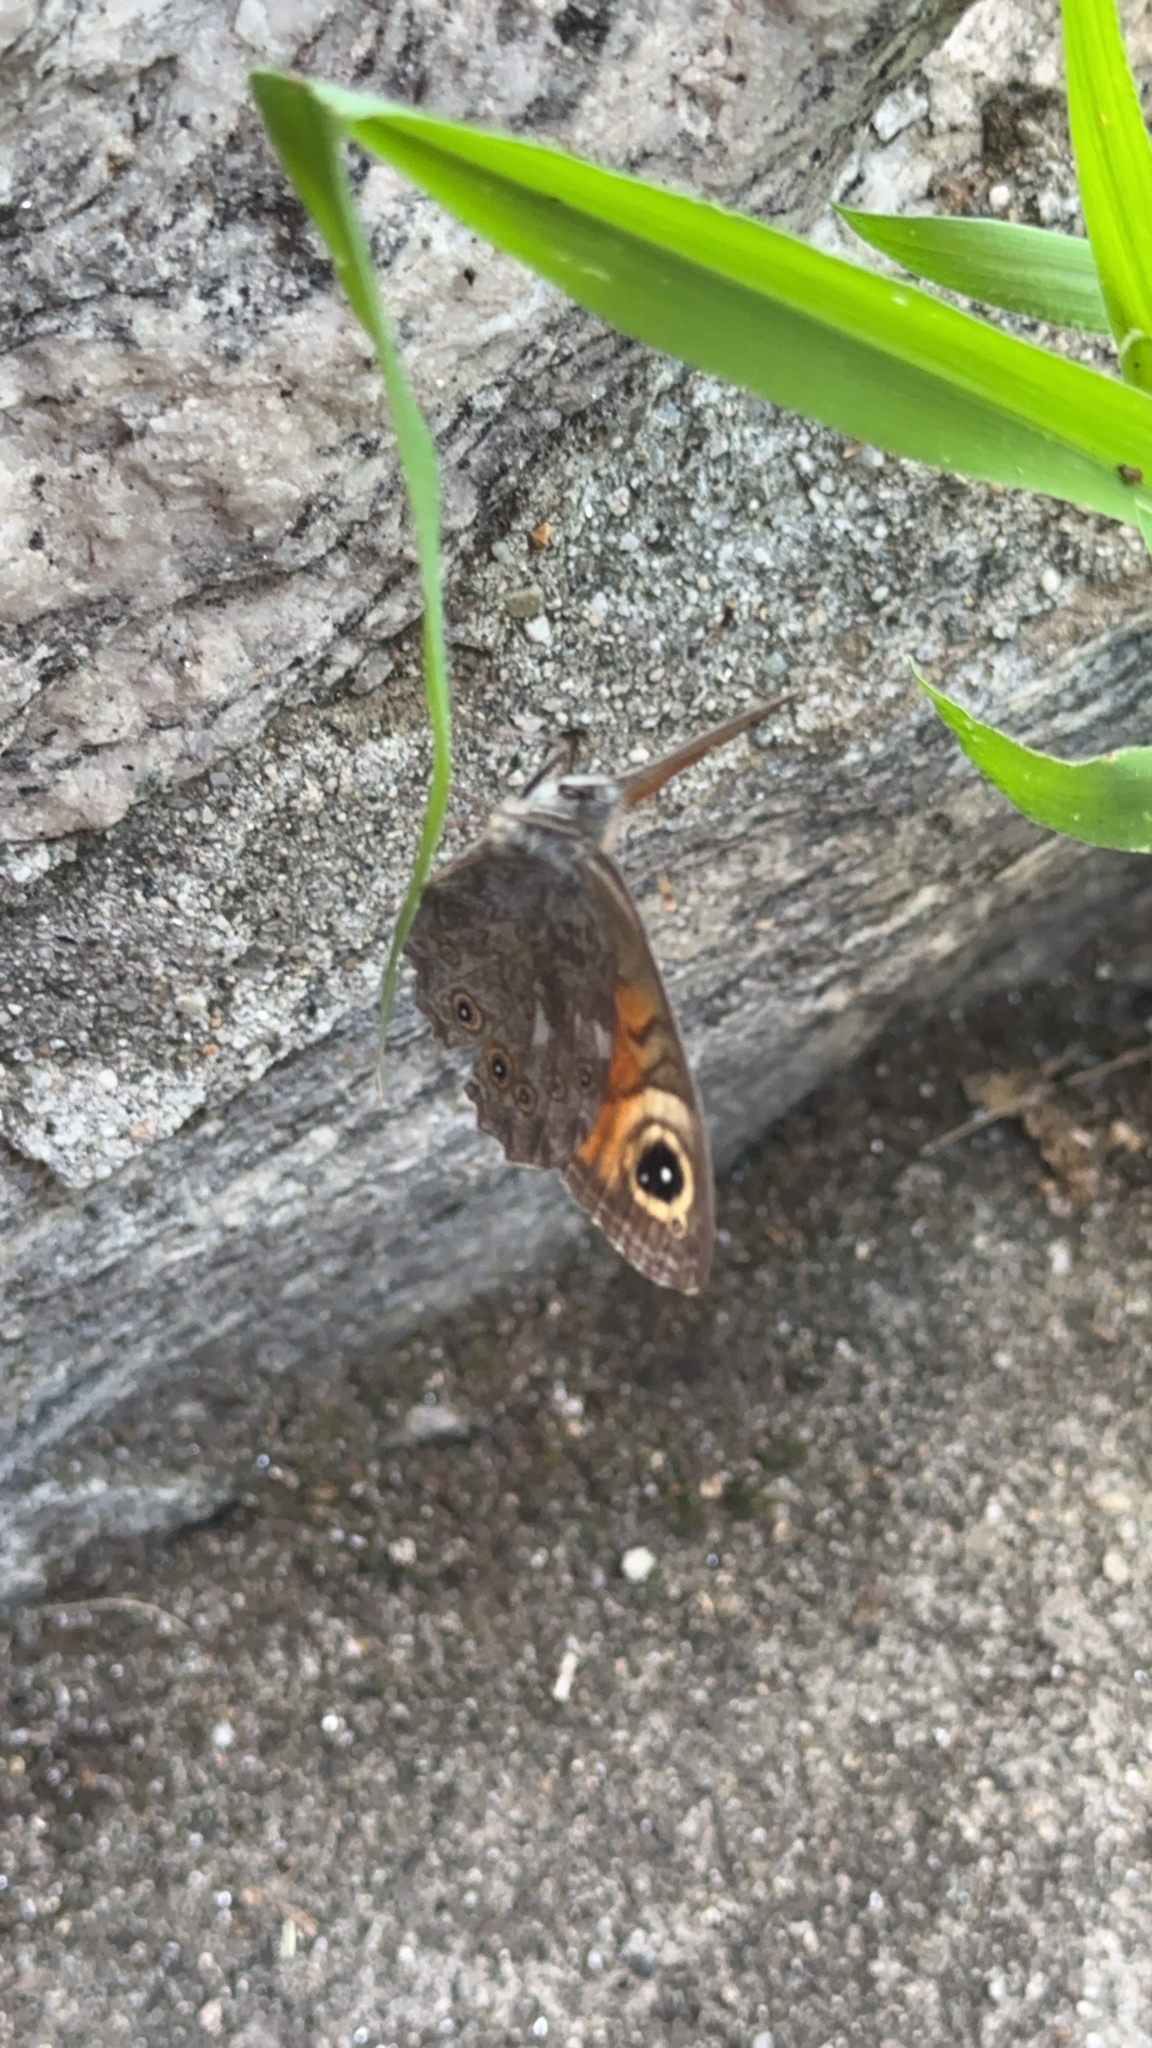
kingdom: Animalia
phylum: Arthropoda
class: Insecta
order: Lepidoptera
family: Nymphalidae
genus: Pararge
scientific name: Pararge Lasiommata maera
